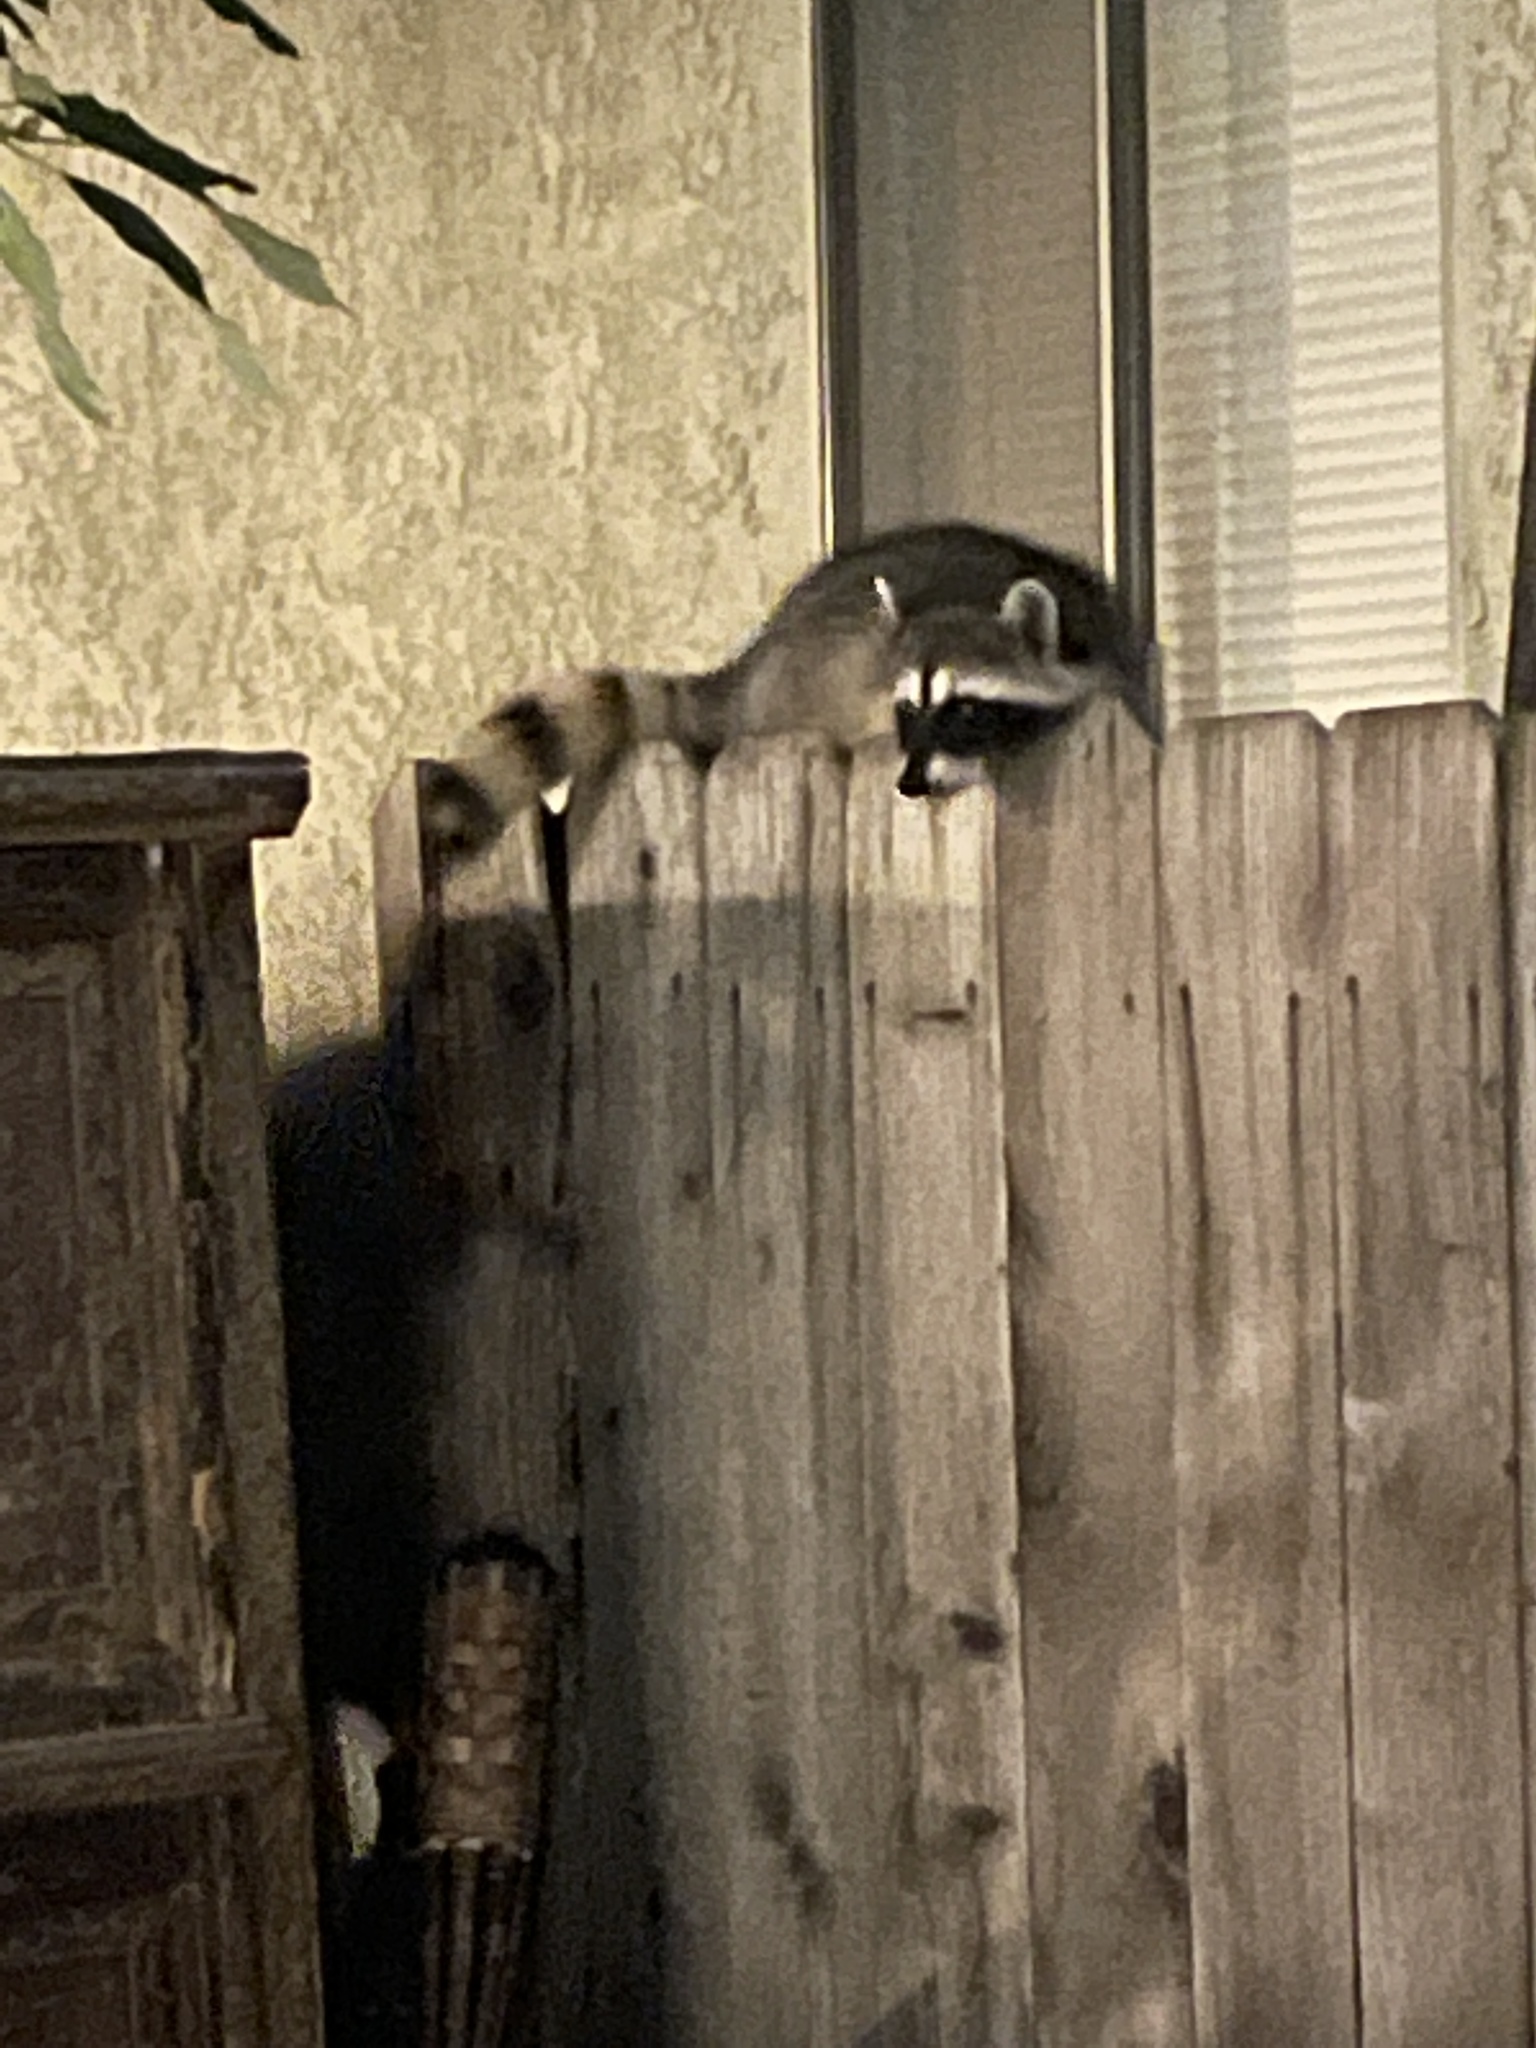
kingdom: Animalia
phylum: Chordata
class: Mammalia
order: Carnivora
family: Procyonidae
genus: Procyon
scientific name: Procyon lotor
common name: Raccoon
